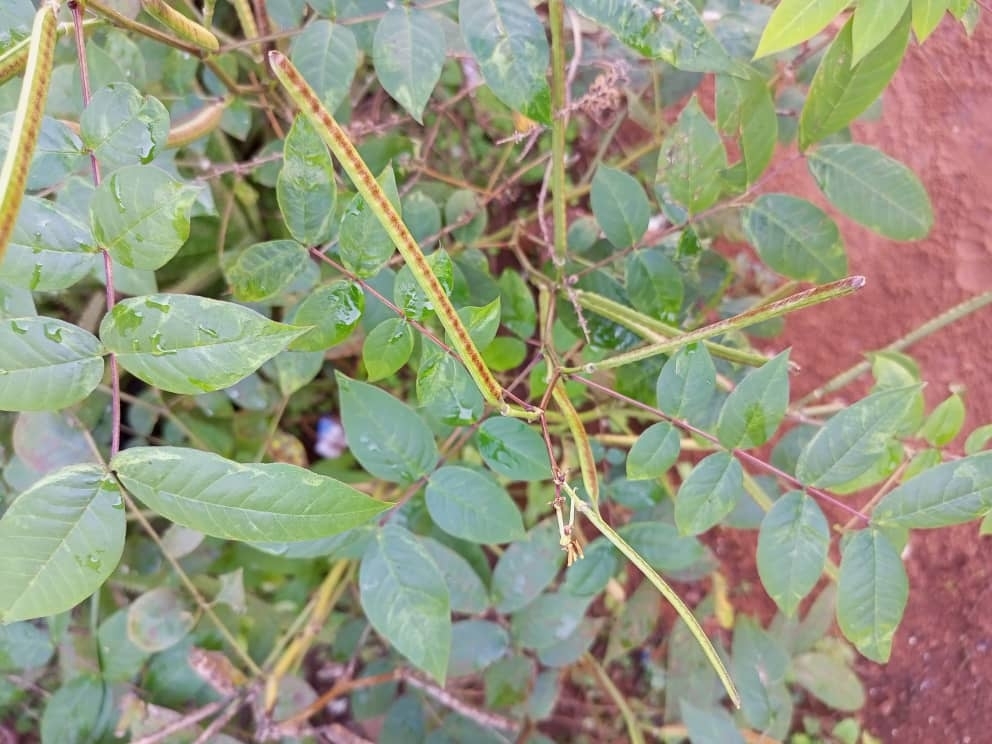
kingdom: Plantae
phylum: Tracheophyta
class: Magnoliopsida
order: Fabales
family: Fabaceae
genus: Senna
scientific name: Senna occidentalis
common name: Septicweed
